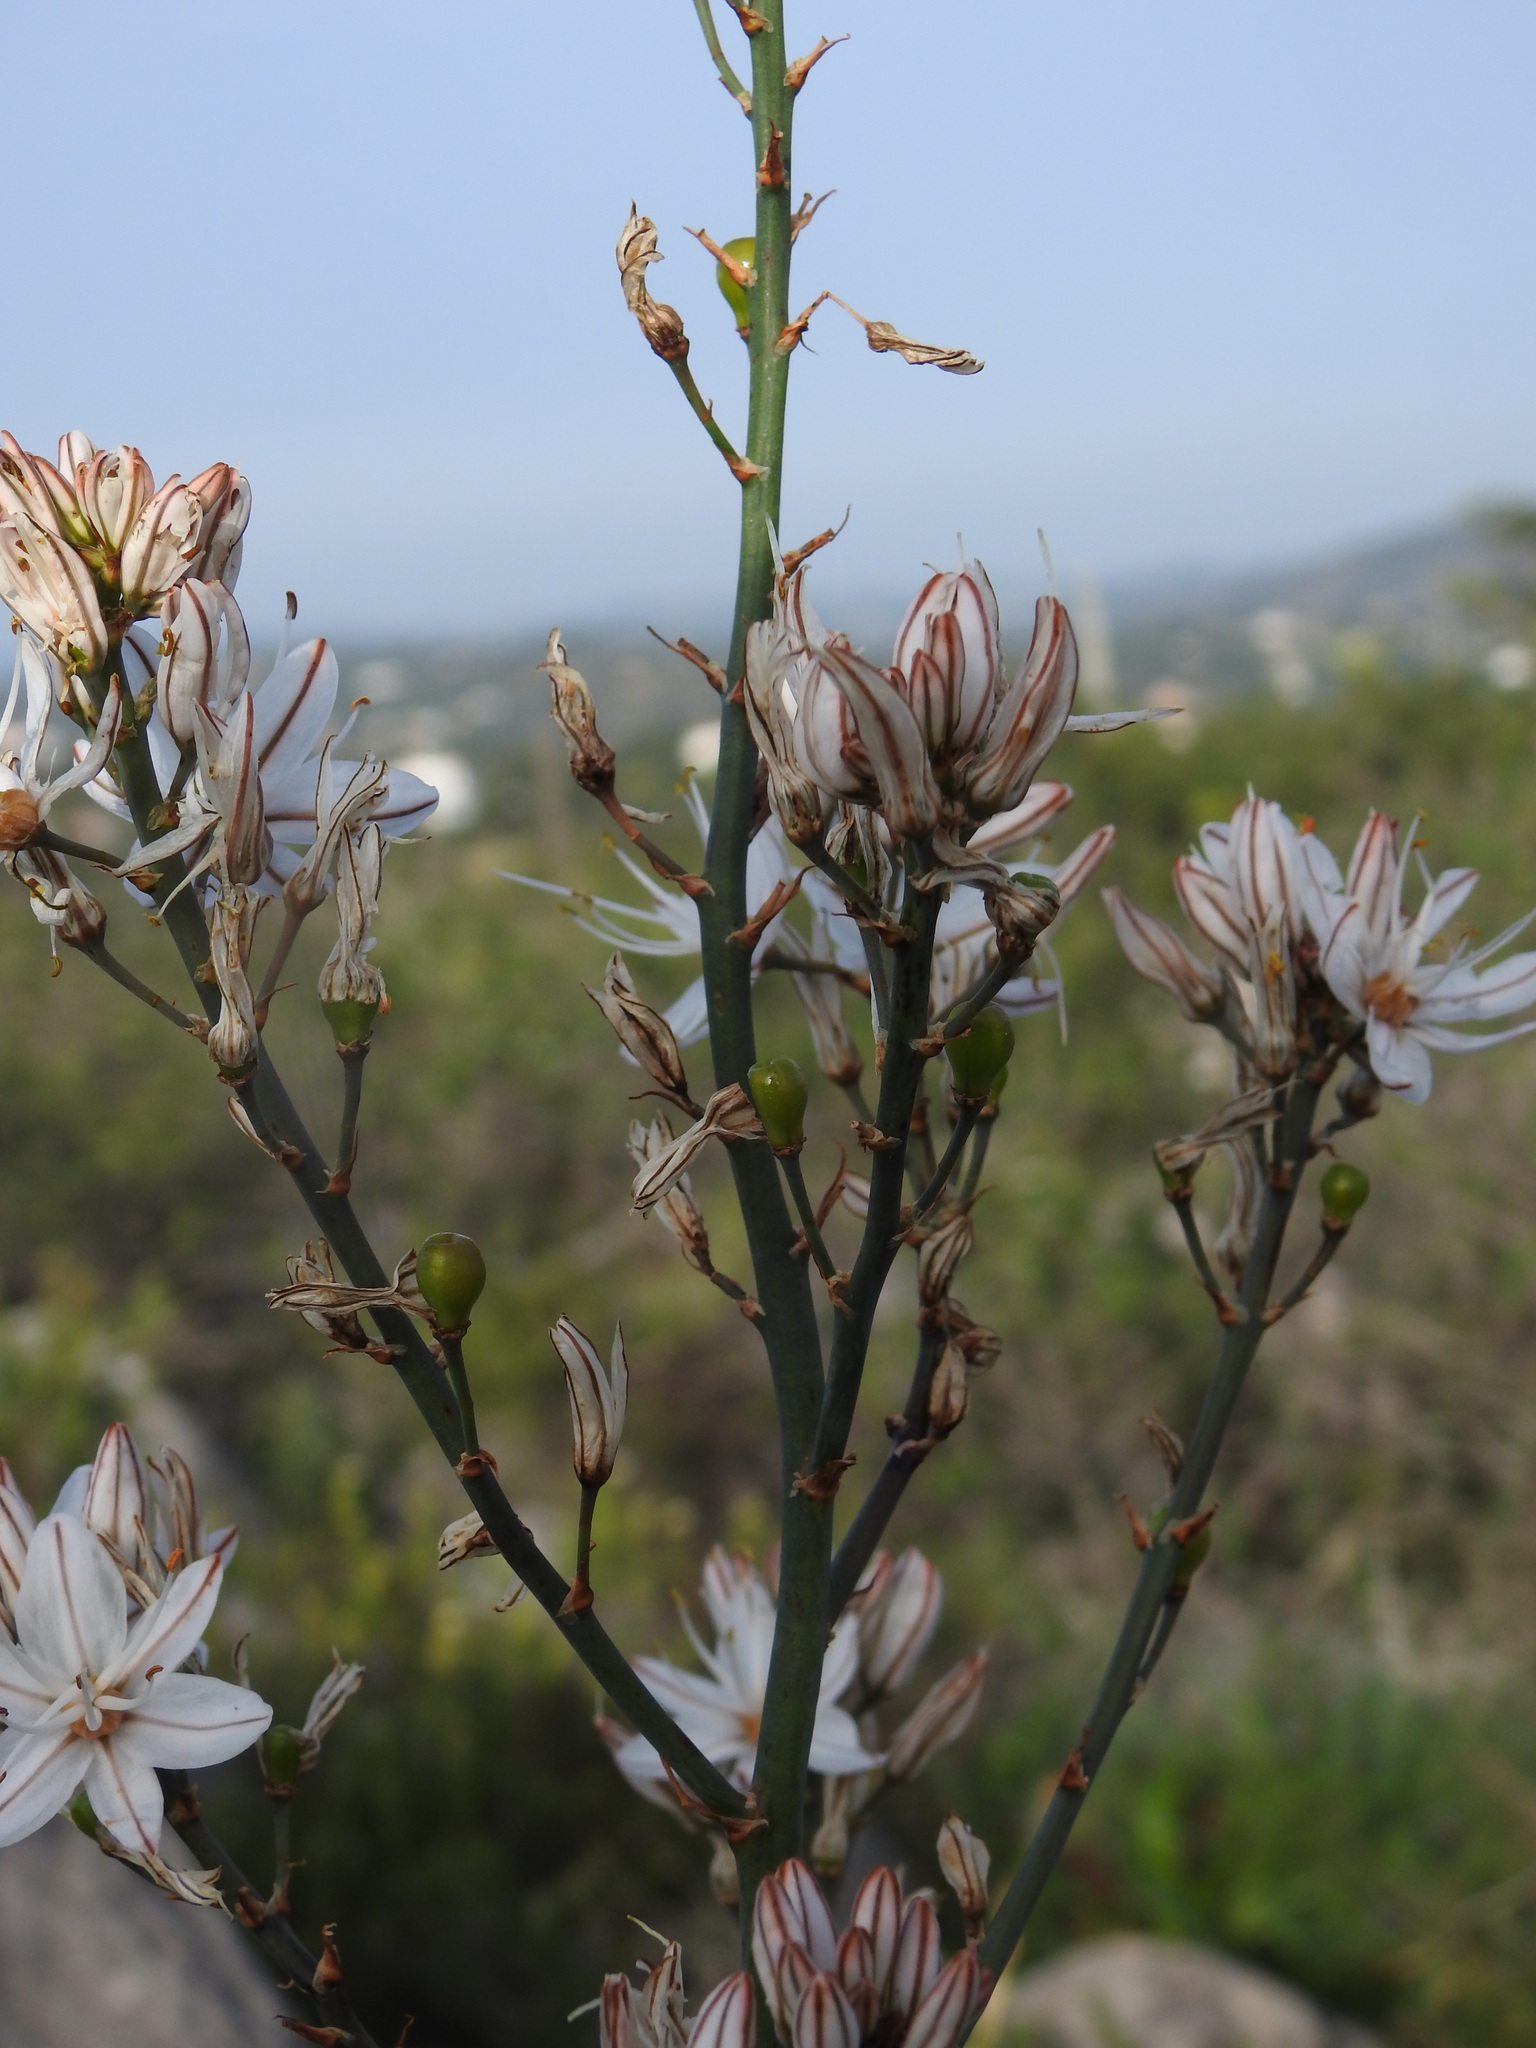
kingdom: Plantae
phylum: Tracheophyta
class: Liliopsida
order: Asparagales
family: Asphodelaceae
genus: Asphodelus
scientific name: Asphodelus serotinus
